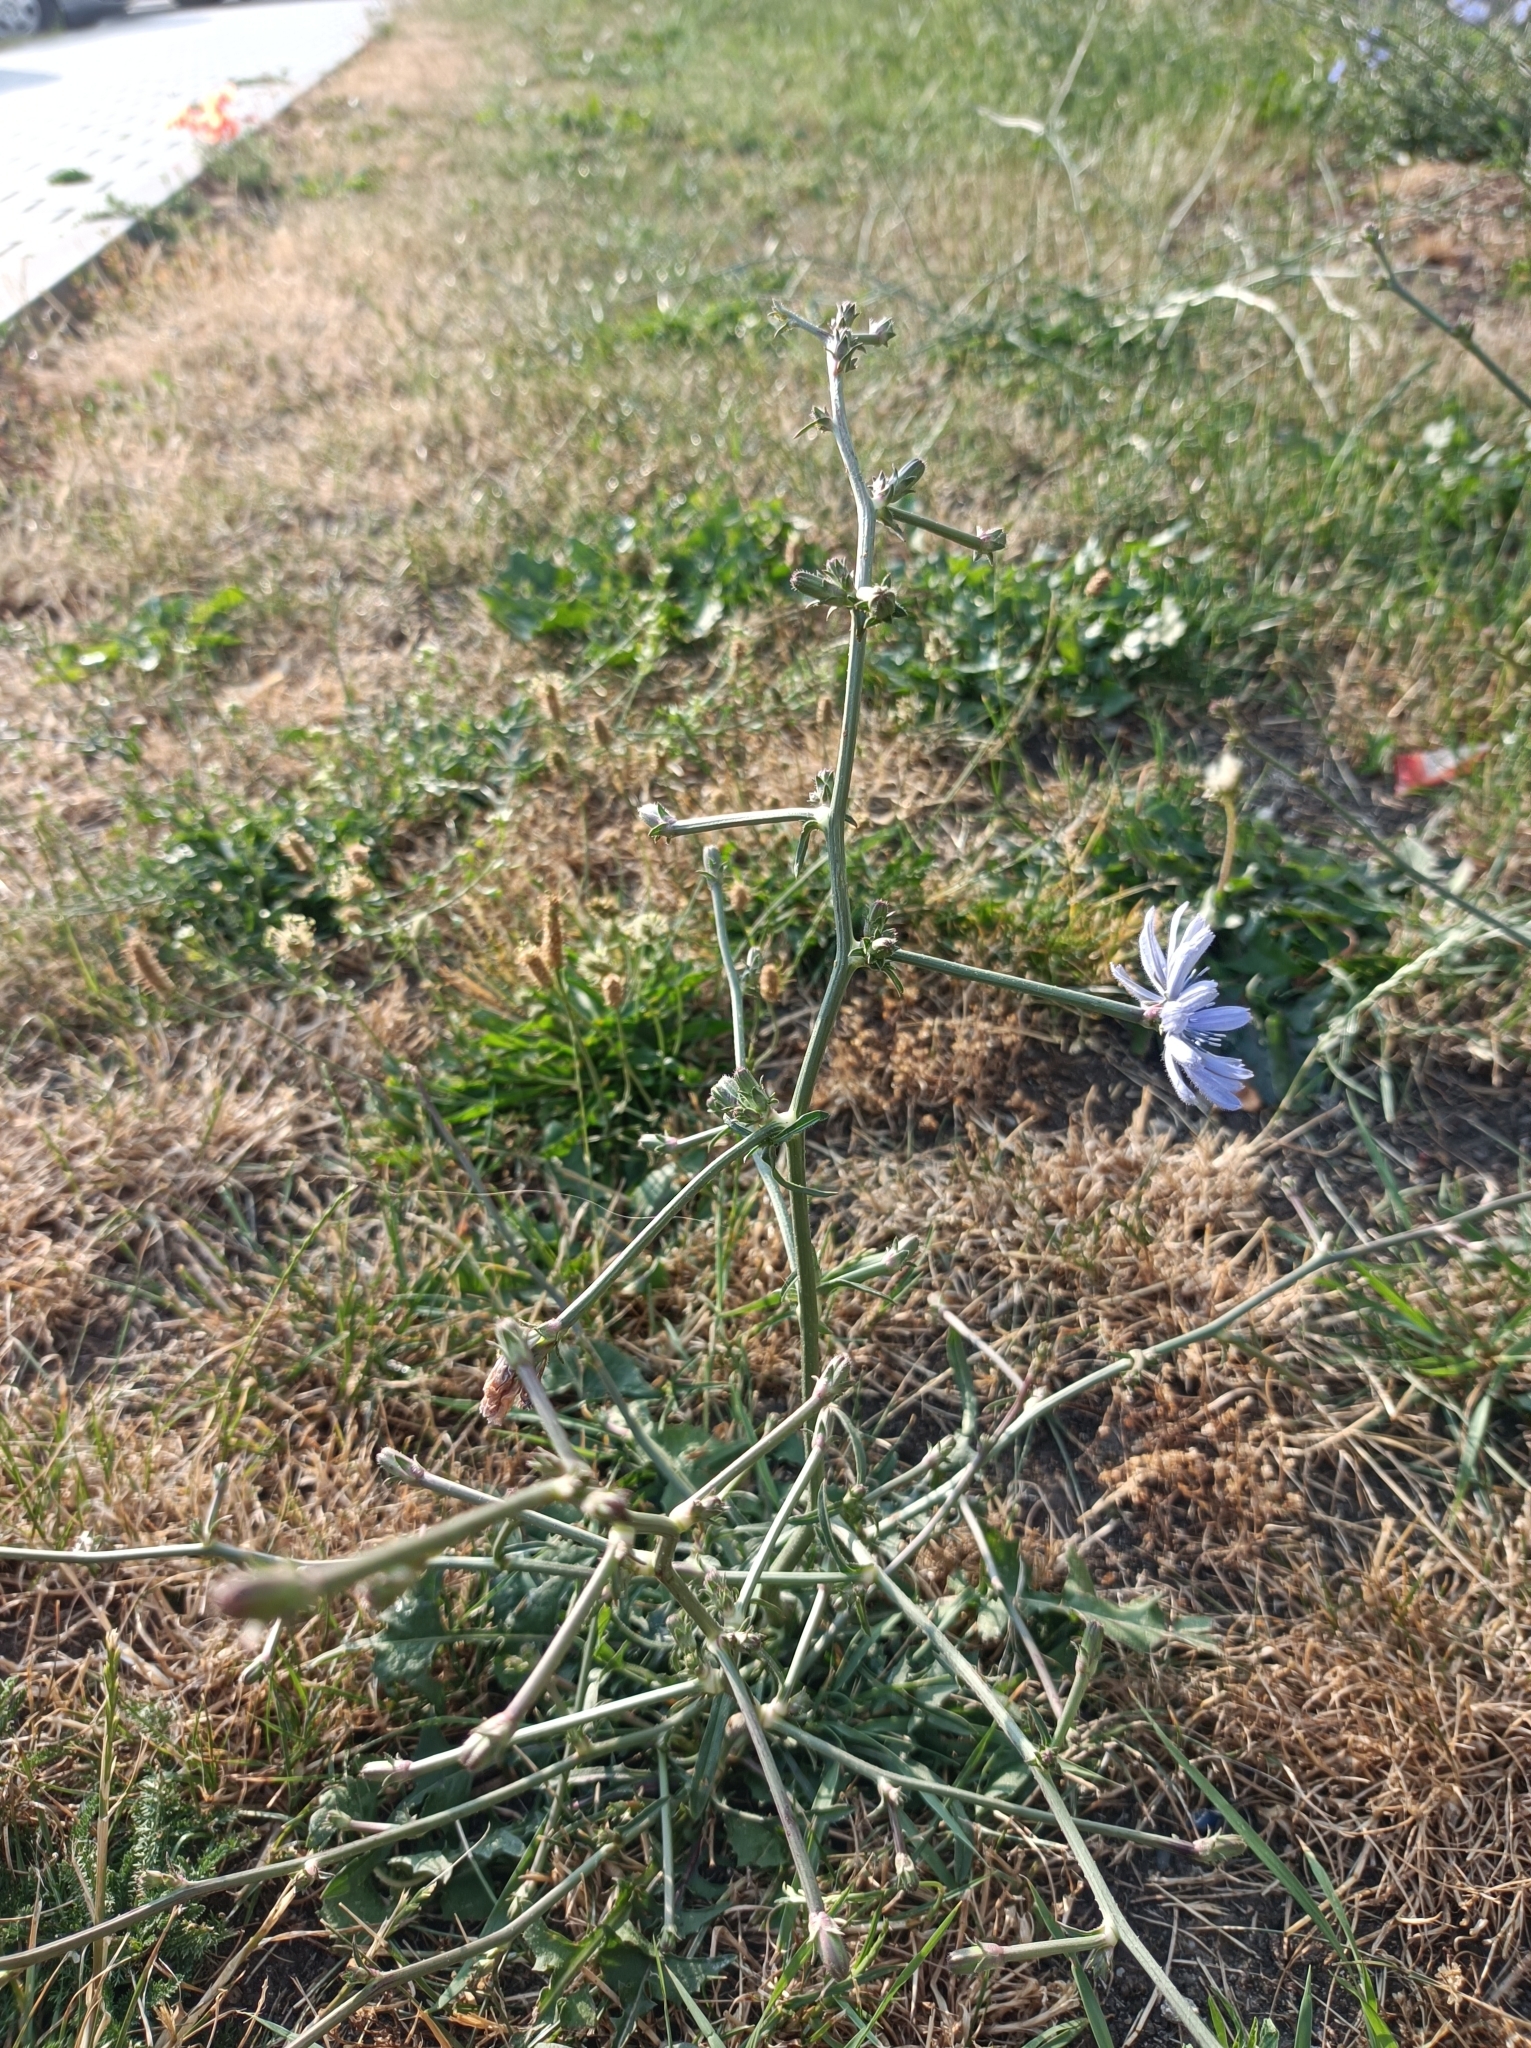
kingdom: Plantae
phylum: Tracheophyta
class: Magnoliopsida
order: Asterales
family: Asteraceae
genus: Cichorium
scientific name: Cichorium intybus
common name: Chicory
